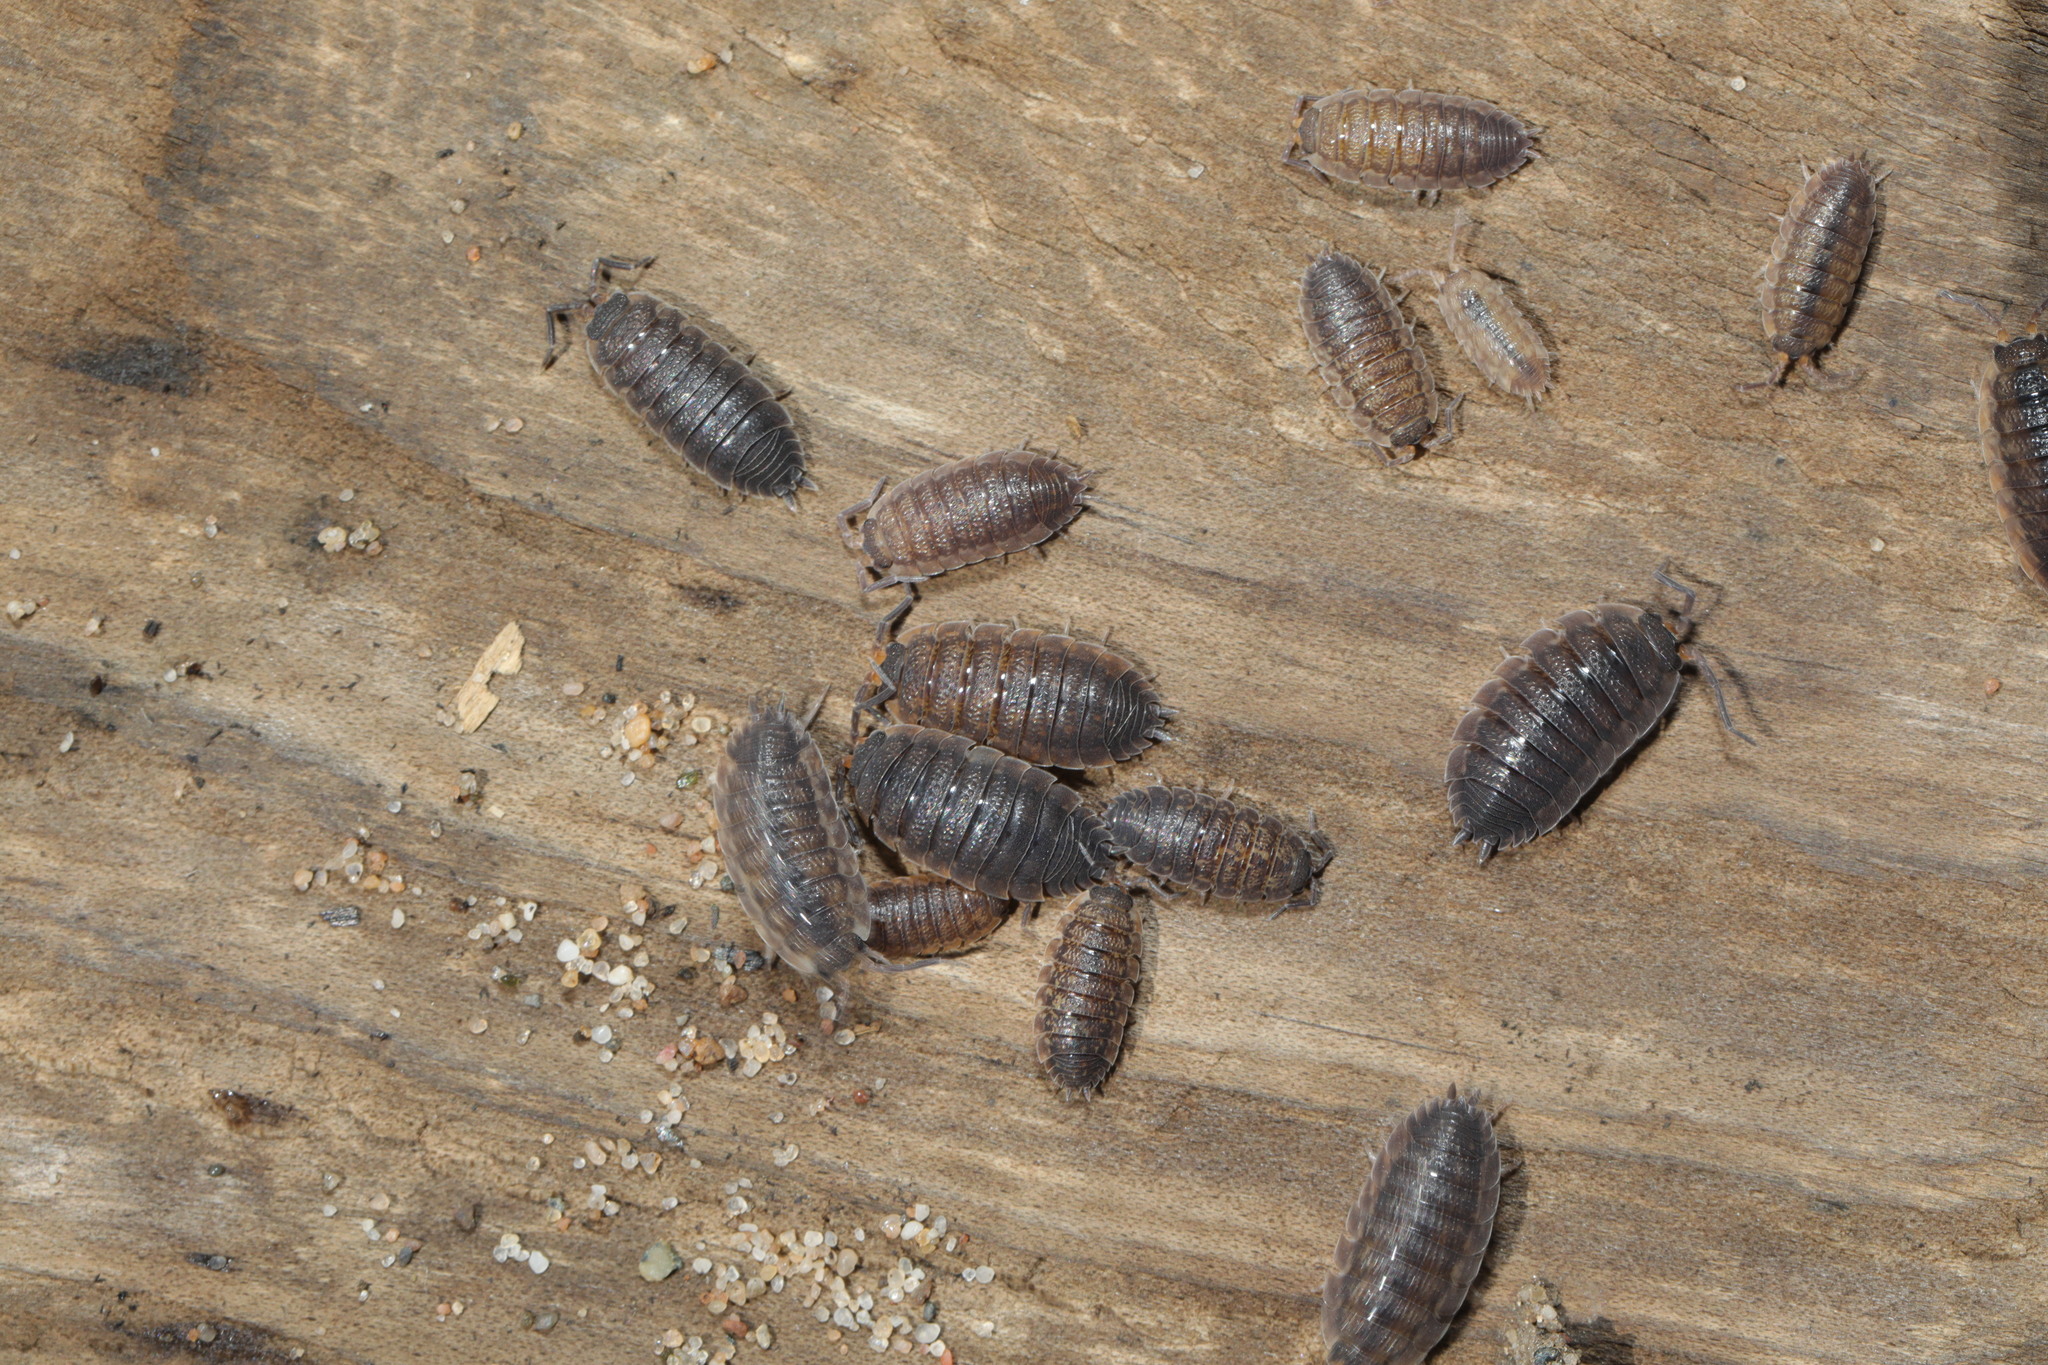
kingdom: Animalia
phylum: Arthropoda
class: Malacostraca
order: Isopoda
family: Porcellionidae
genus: Porcellio
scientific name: Porcellio scaber
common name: Common rough woodlouse
